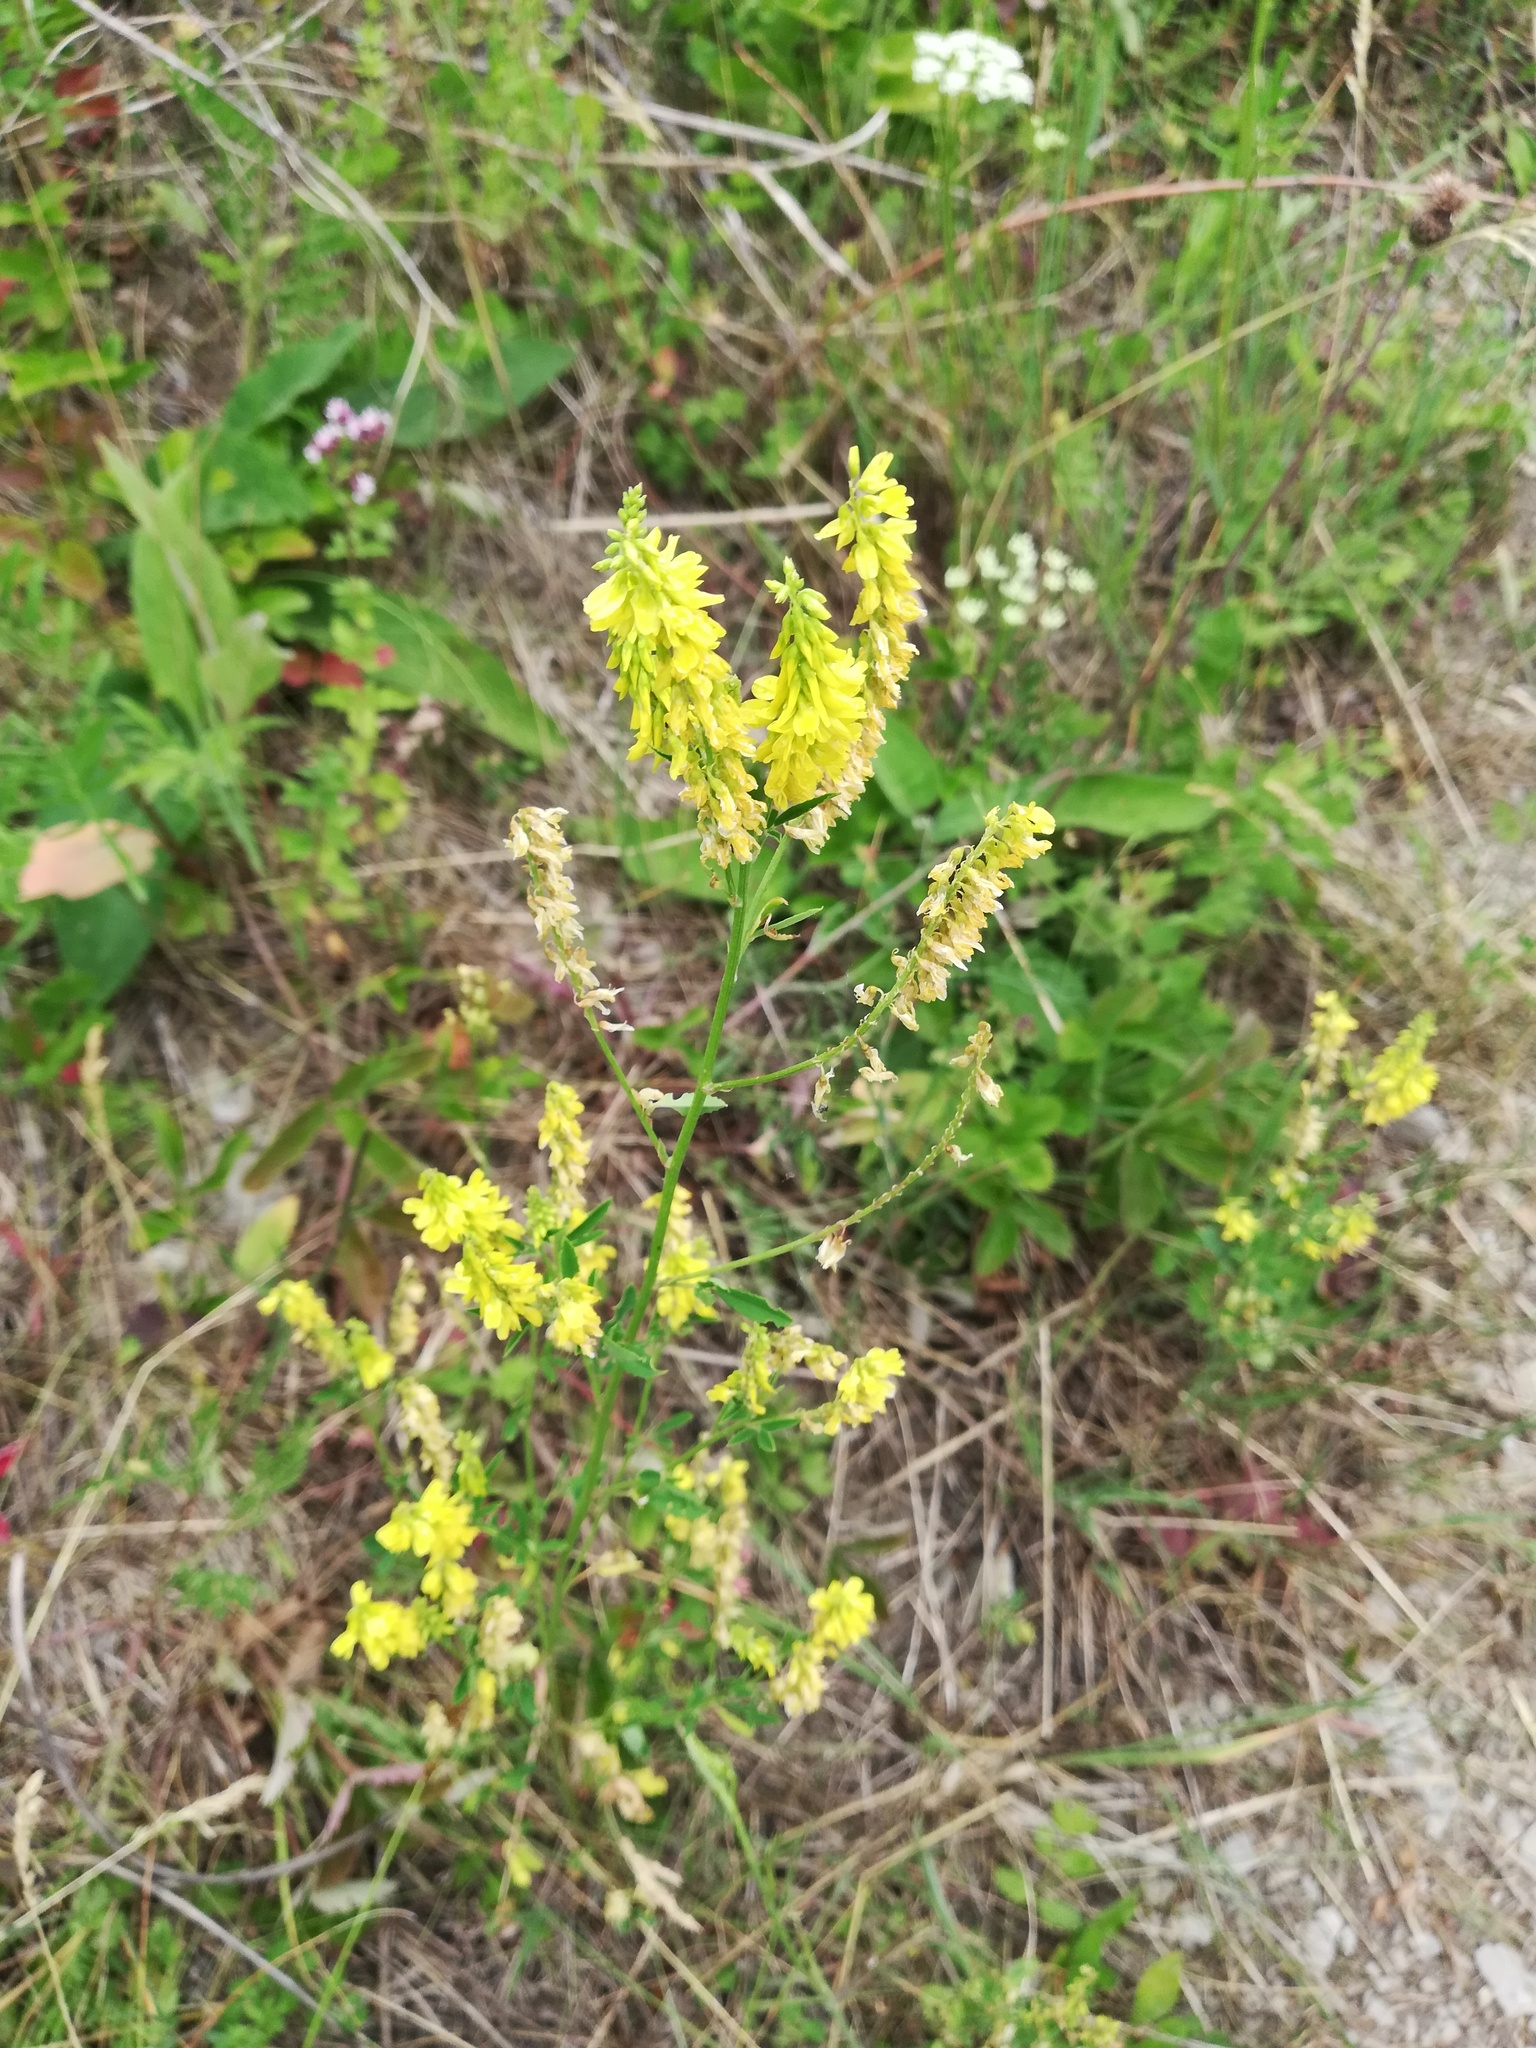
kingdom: Plantae
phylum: Tracheophyta
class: Magnoliopsida
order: Fabales
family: Fabaceae
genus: Melilotus
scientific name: Melilotus officinalis
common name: Sweetclover
